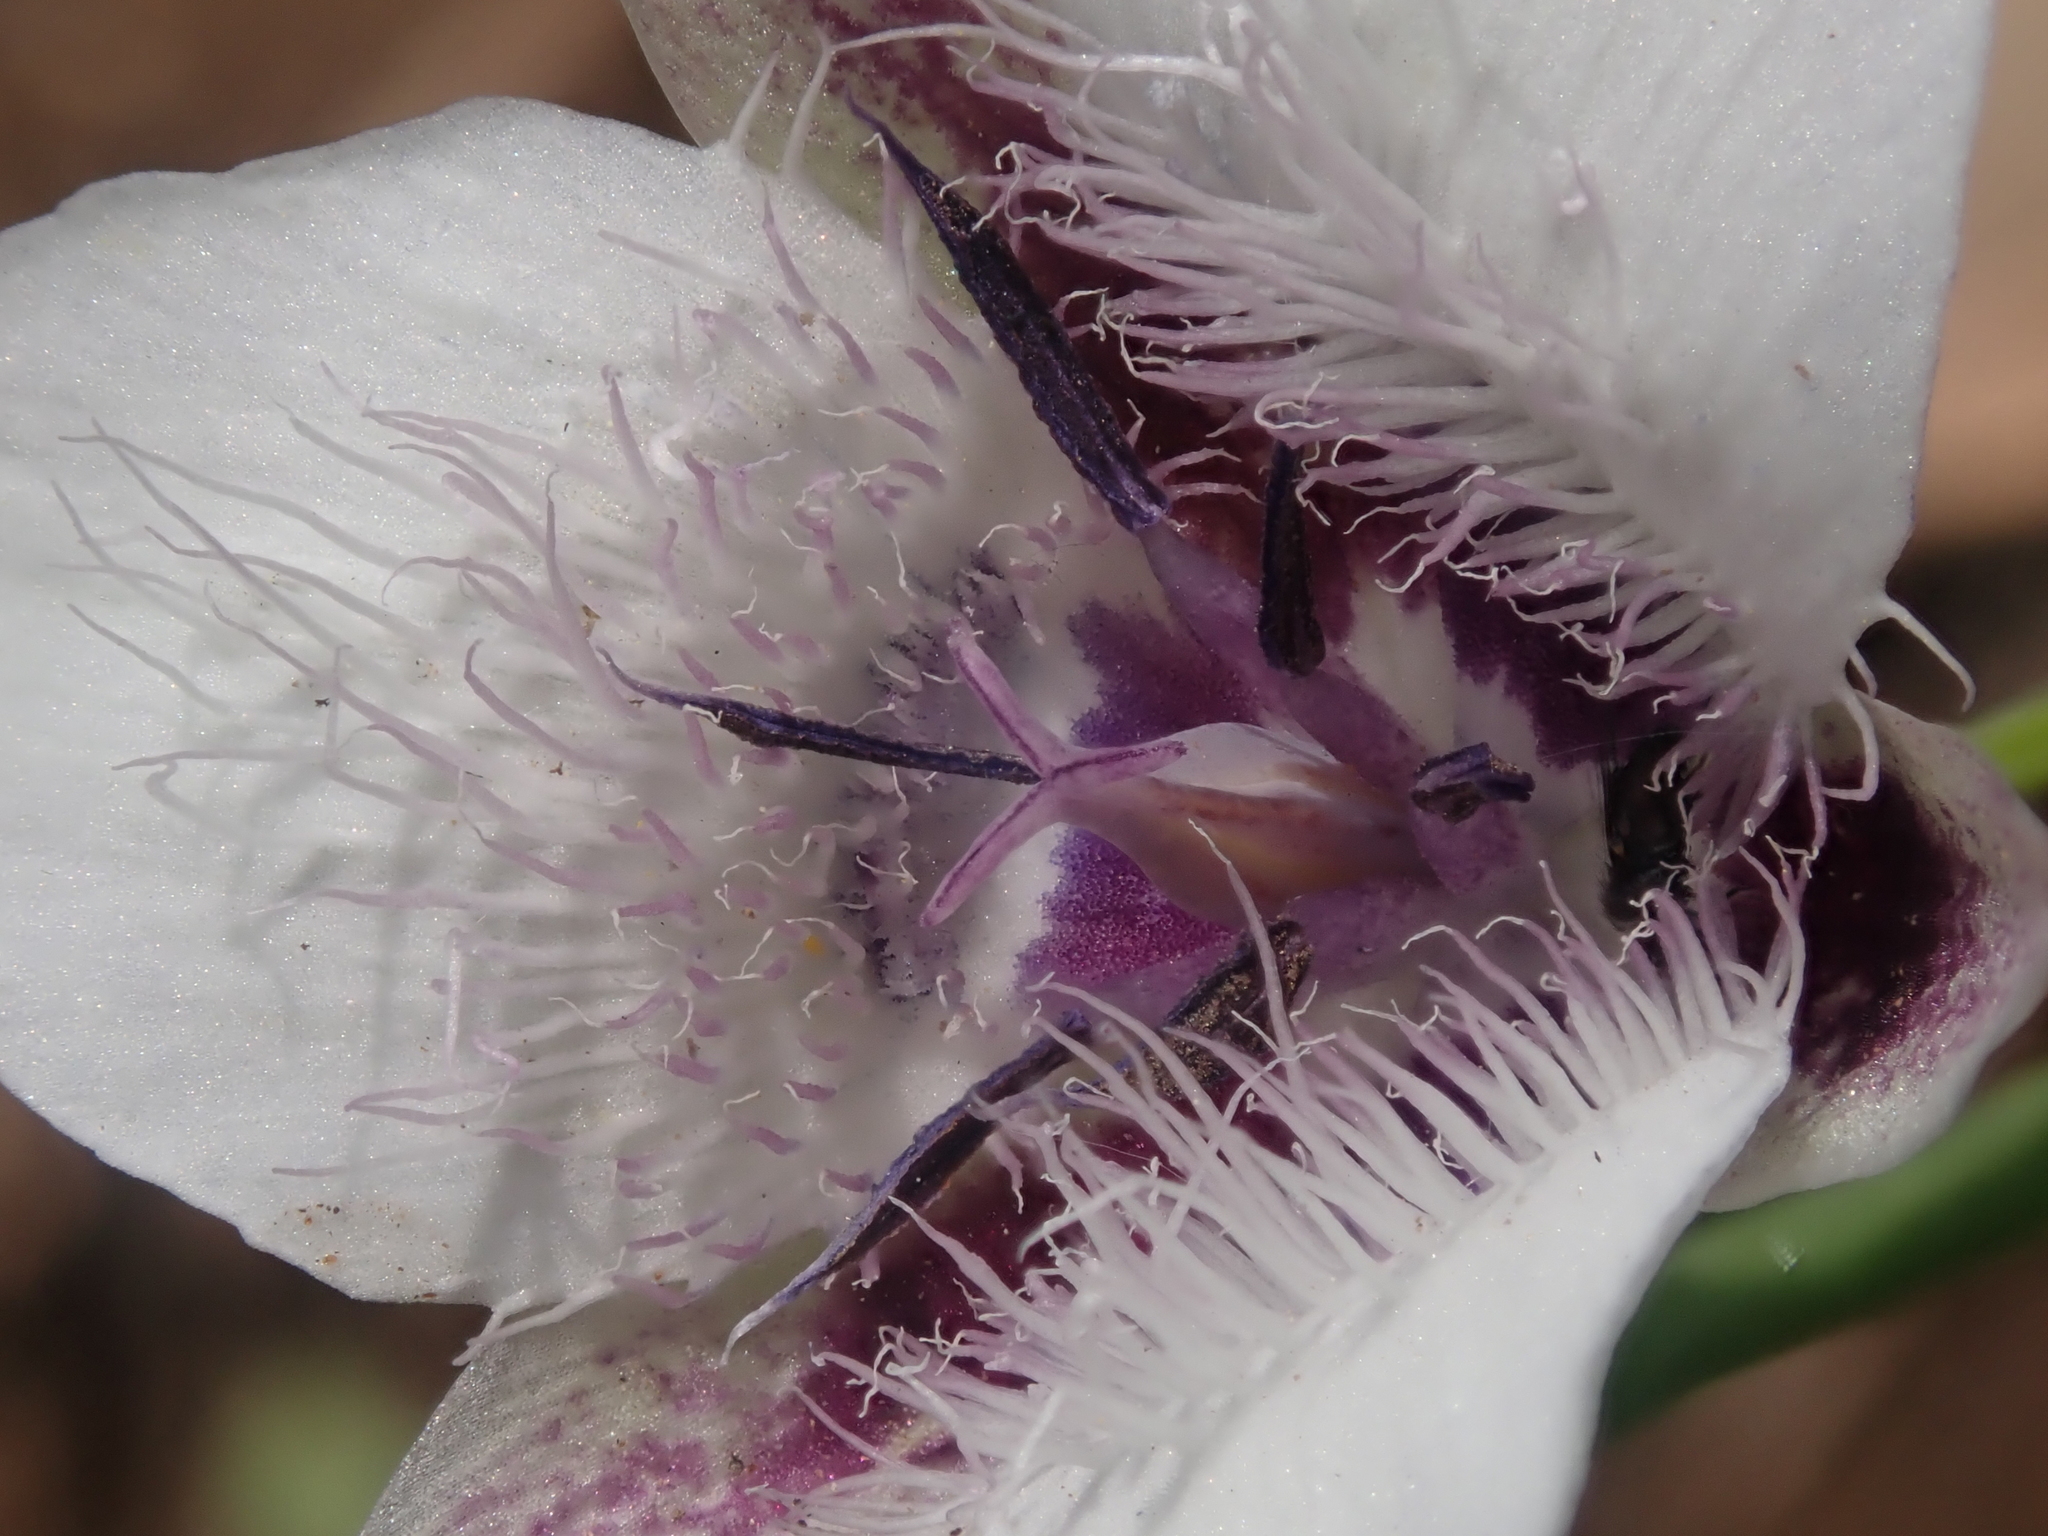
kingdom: Plantae
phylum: Tracheophyta
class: Liliopsida
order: Liliales
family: Liliaceae
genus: Calochortus
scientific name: Calochortus elegans
